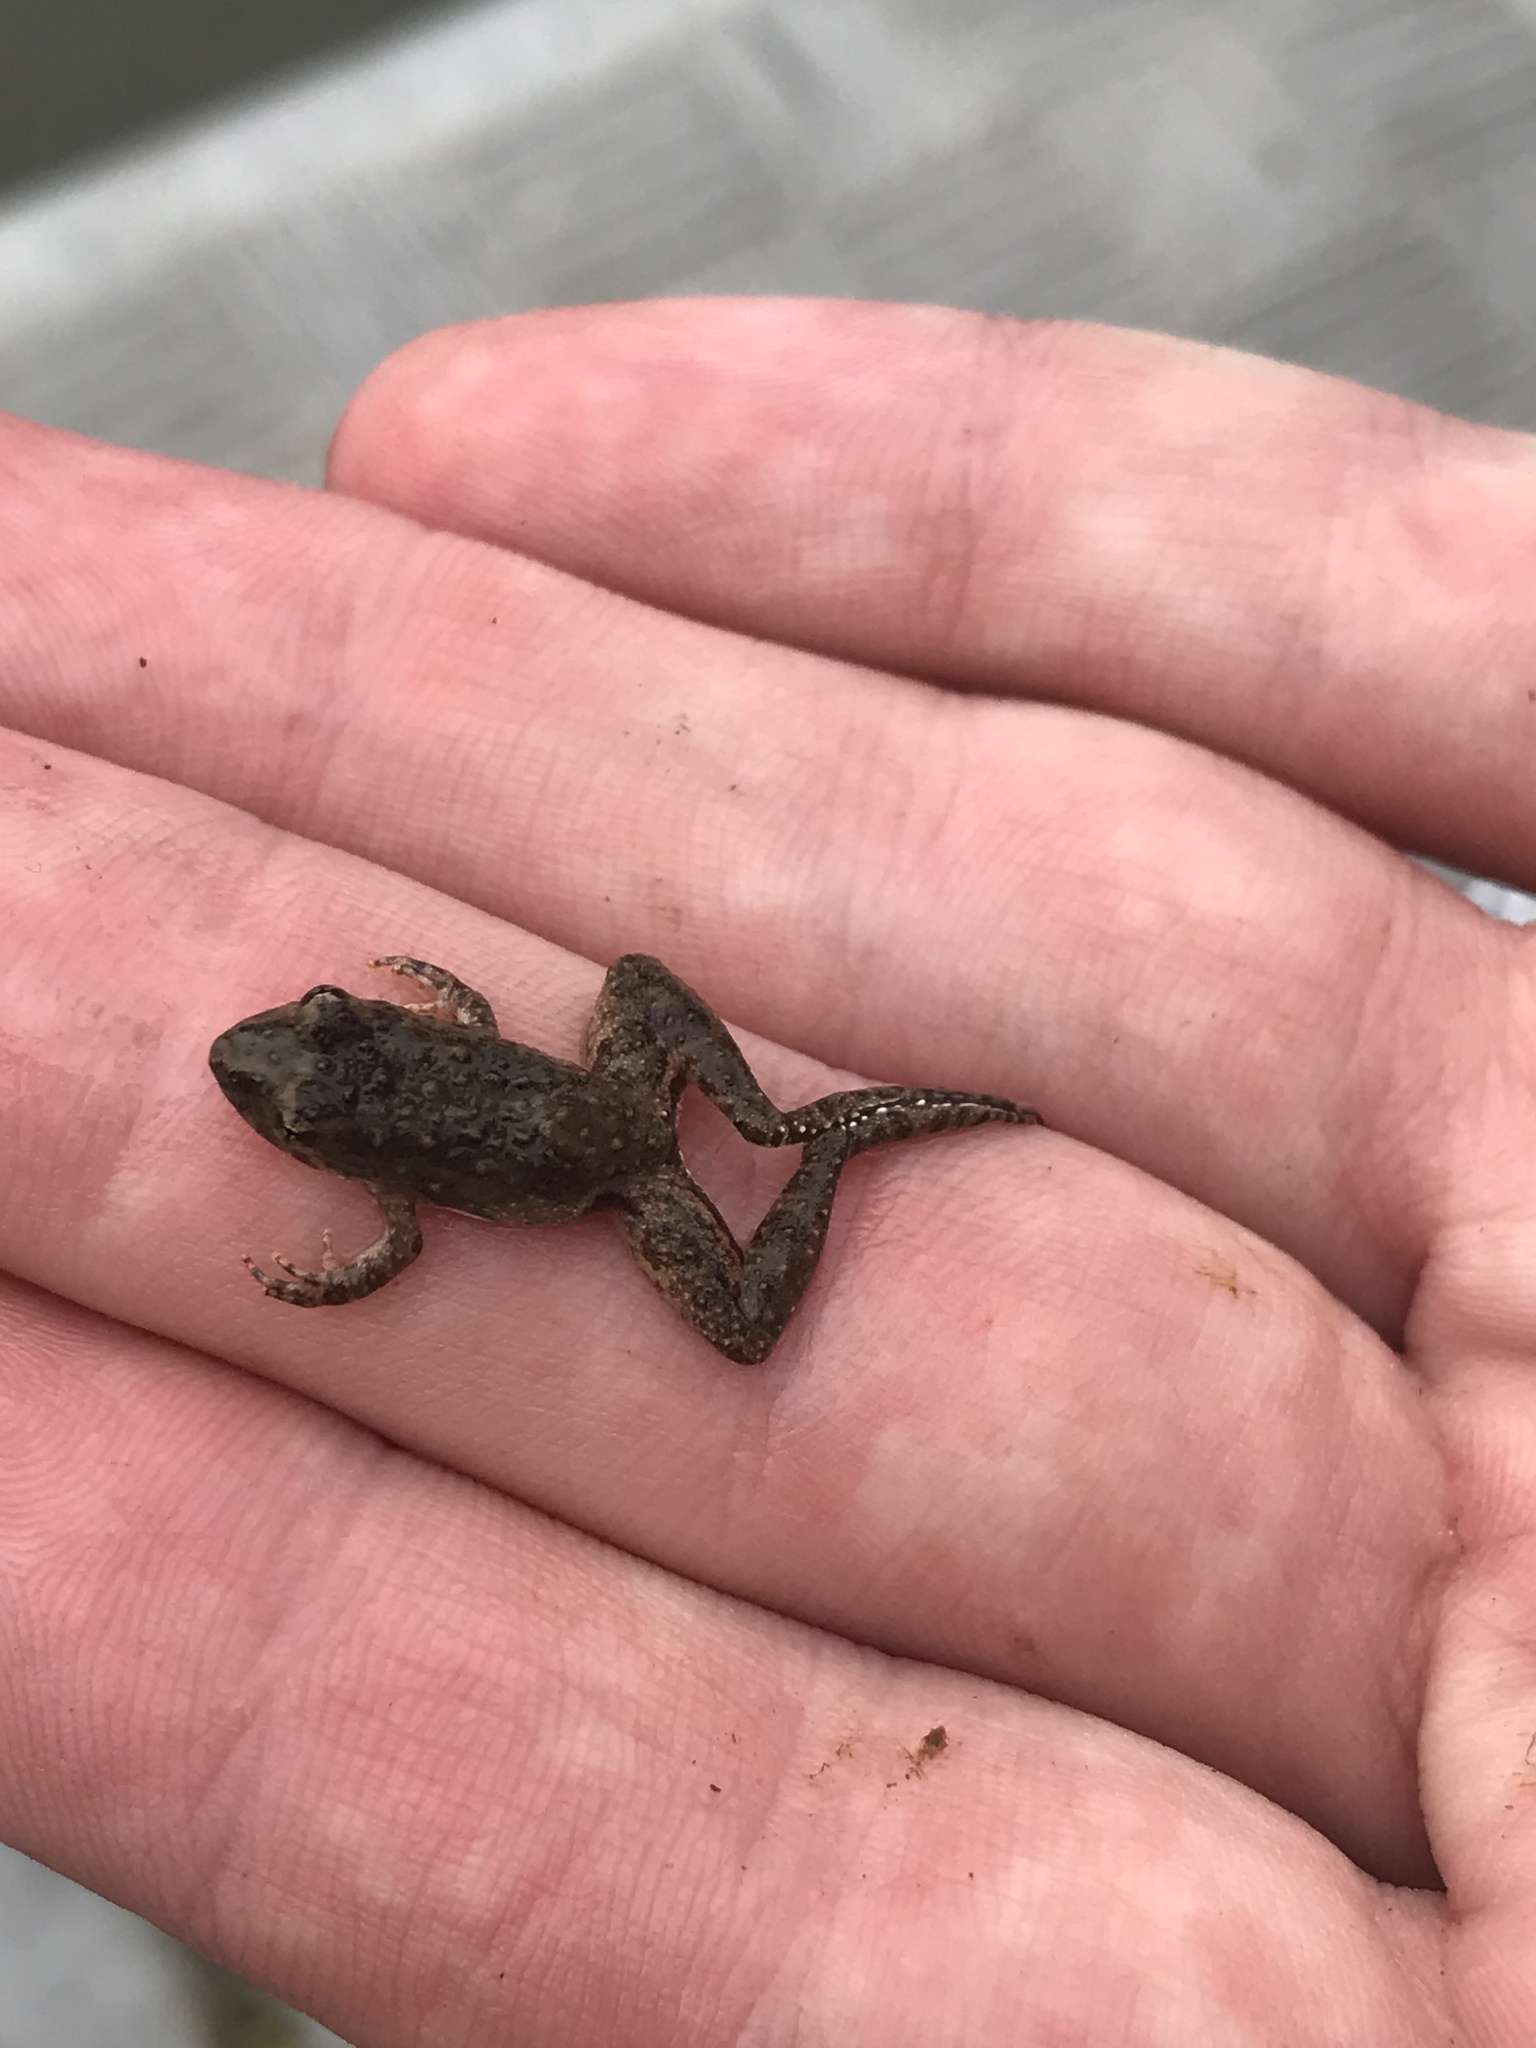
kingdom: Animalia
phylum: Chordata
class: Amphibia
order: Anura
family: Eleutherodactylidae
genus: Eleutherodactylus
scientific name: Eleutherodactylus campi
